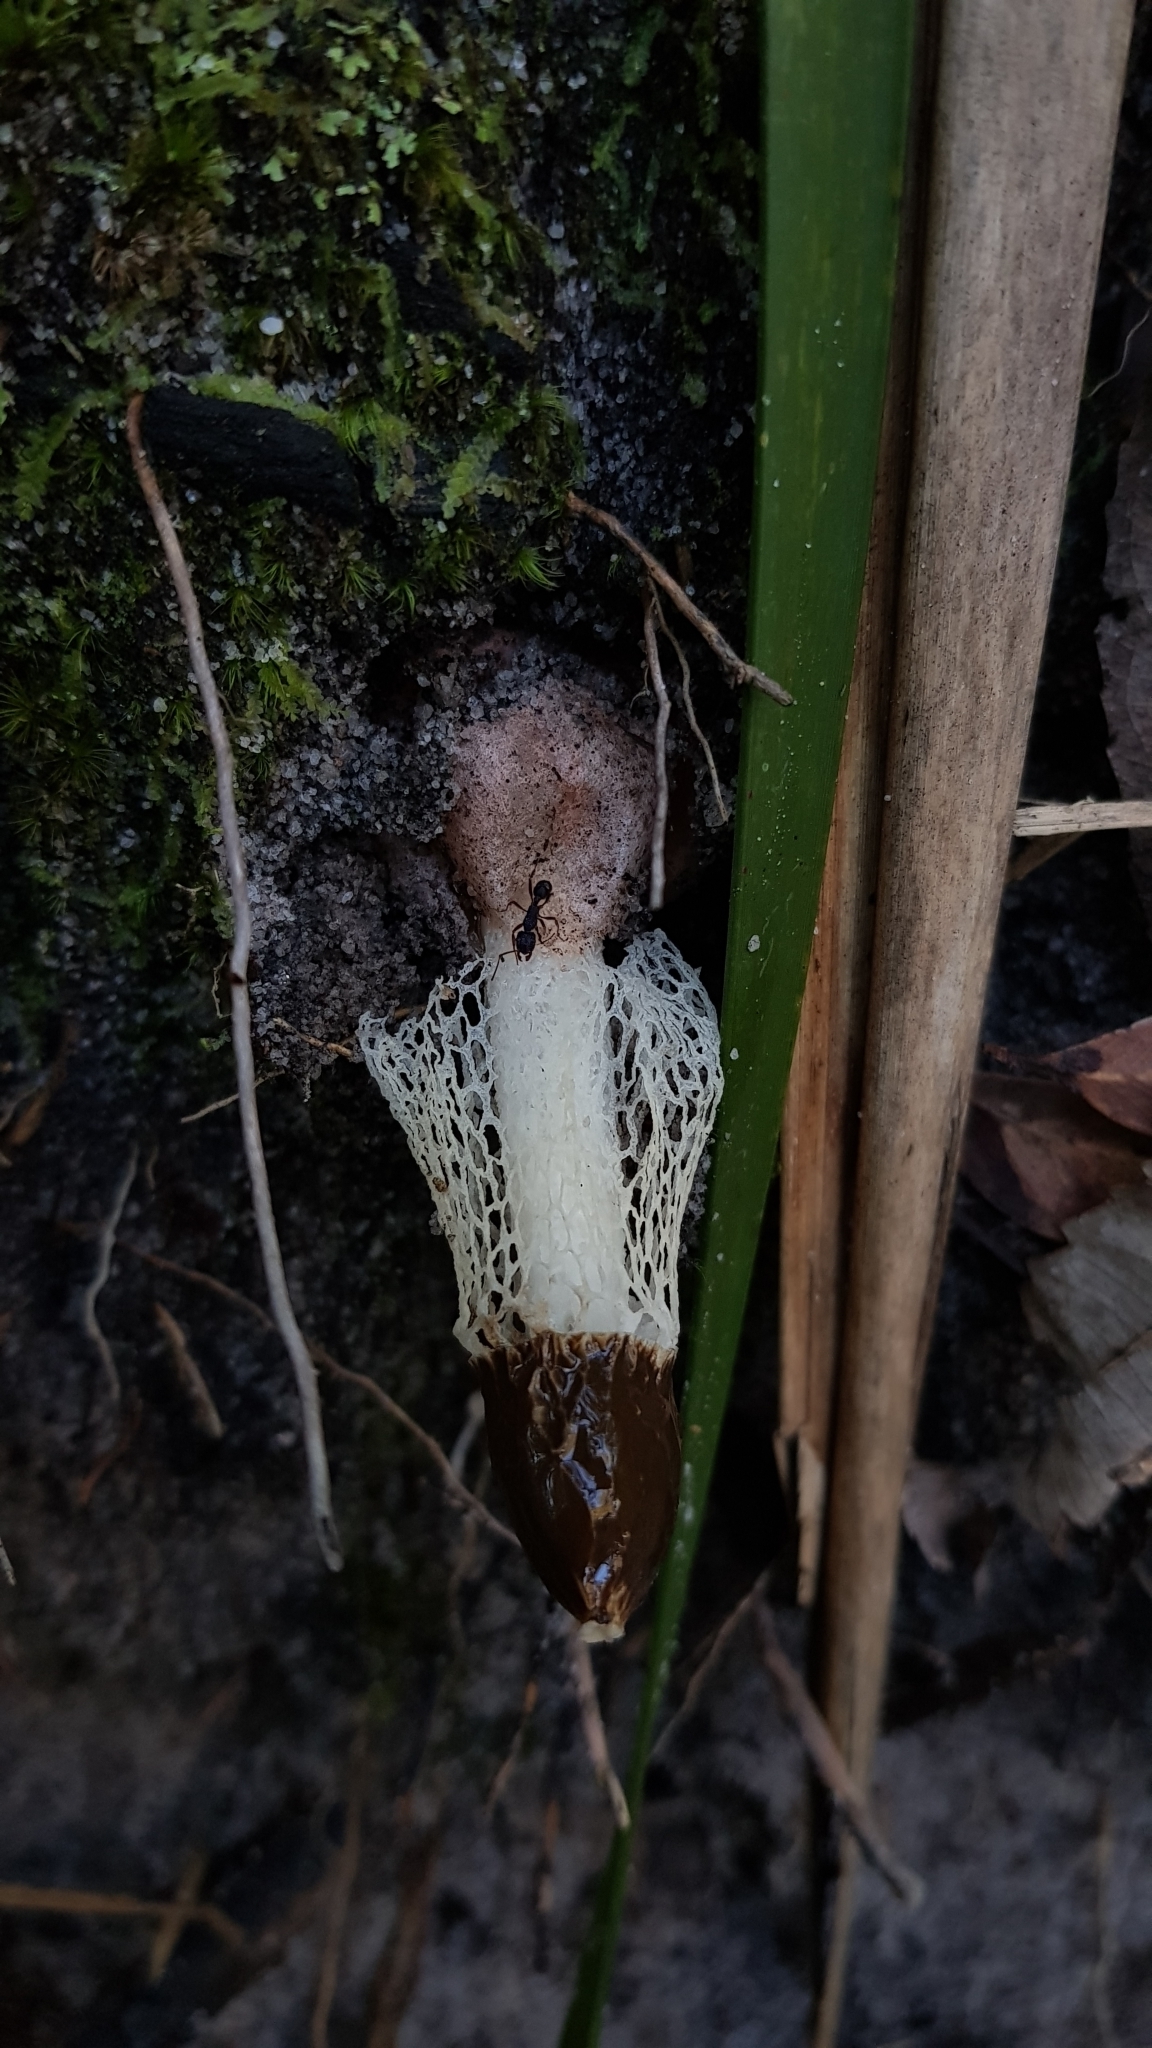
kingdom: Fungi
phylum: Basidiomycota
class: Agaricomycetes
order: Phallales
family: Phallaceae
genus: Phallus
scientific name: Phallus indusiatus
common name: Bridal veil stinkhorn
